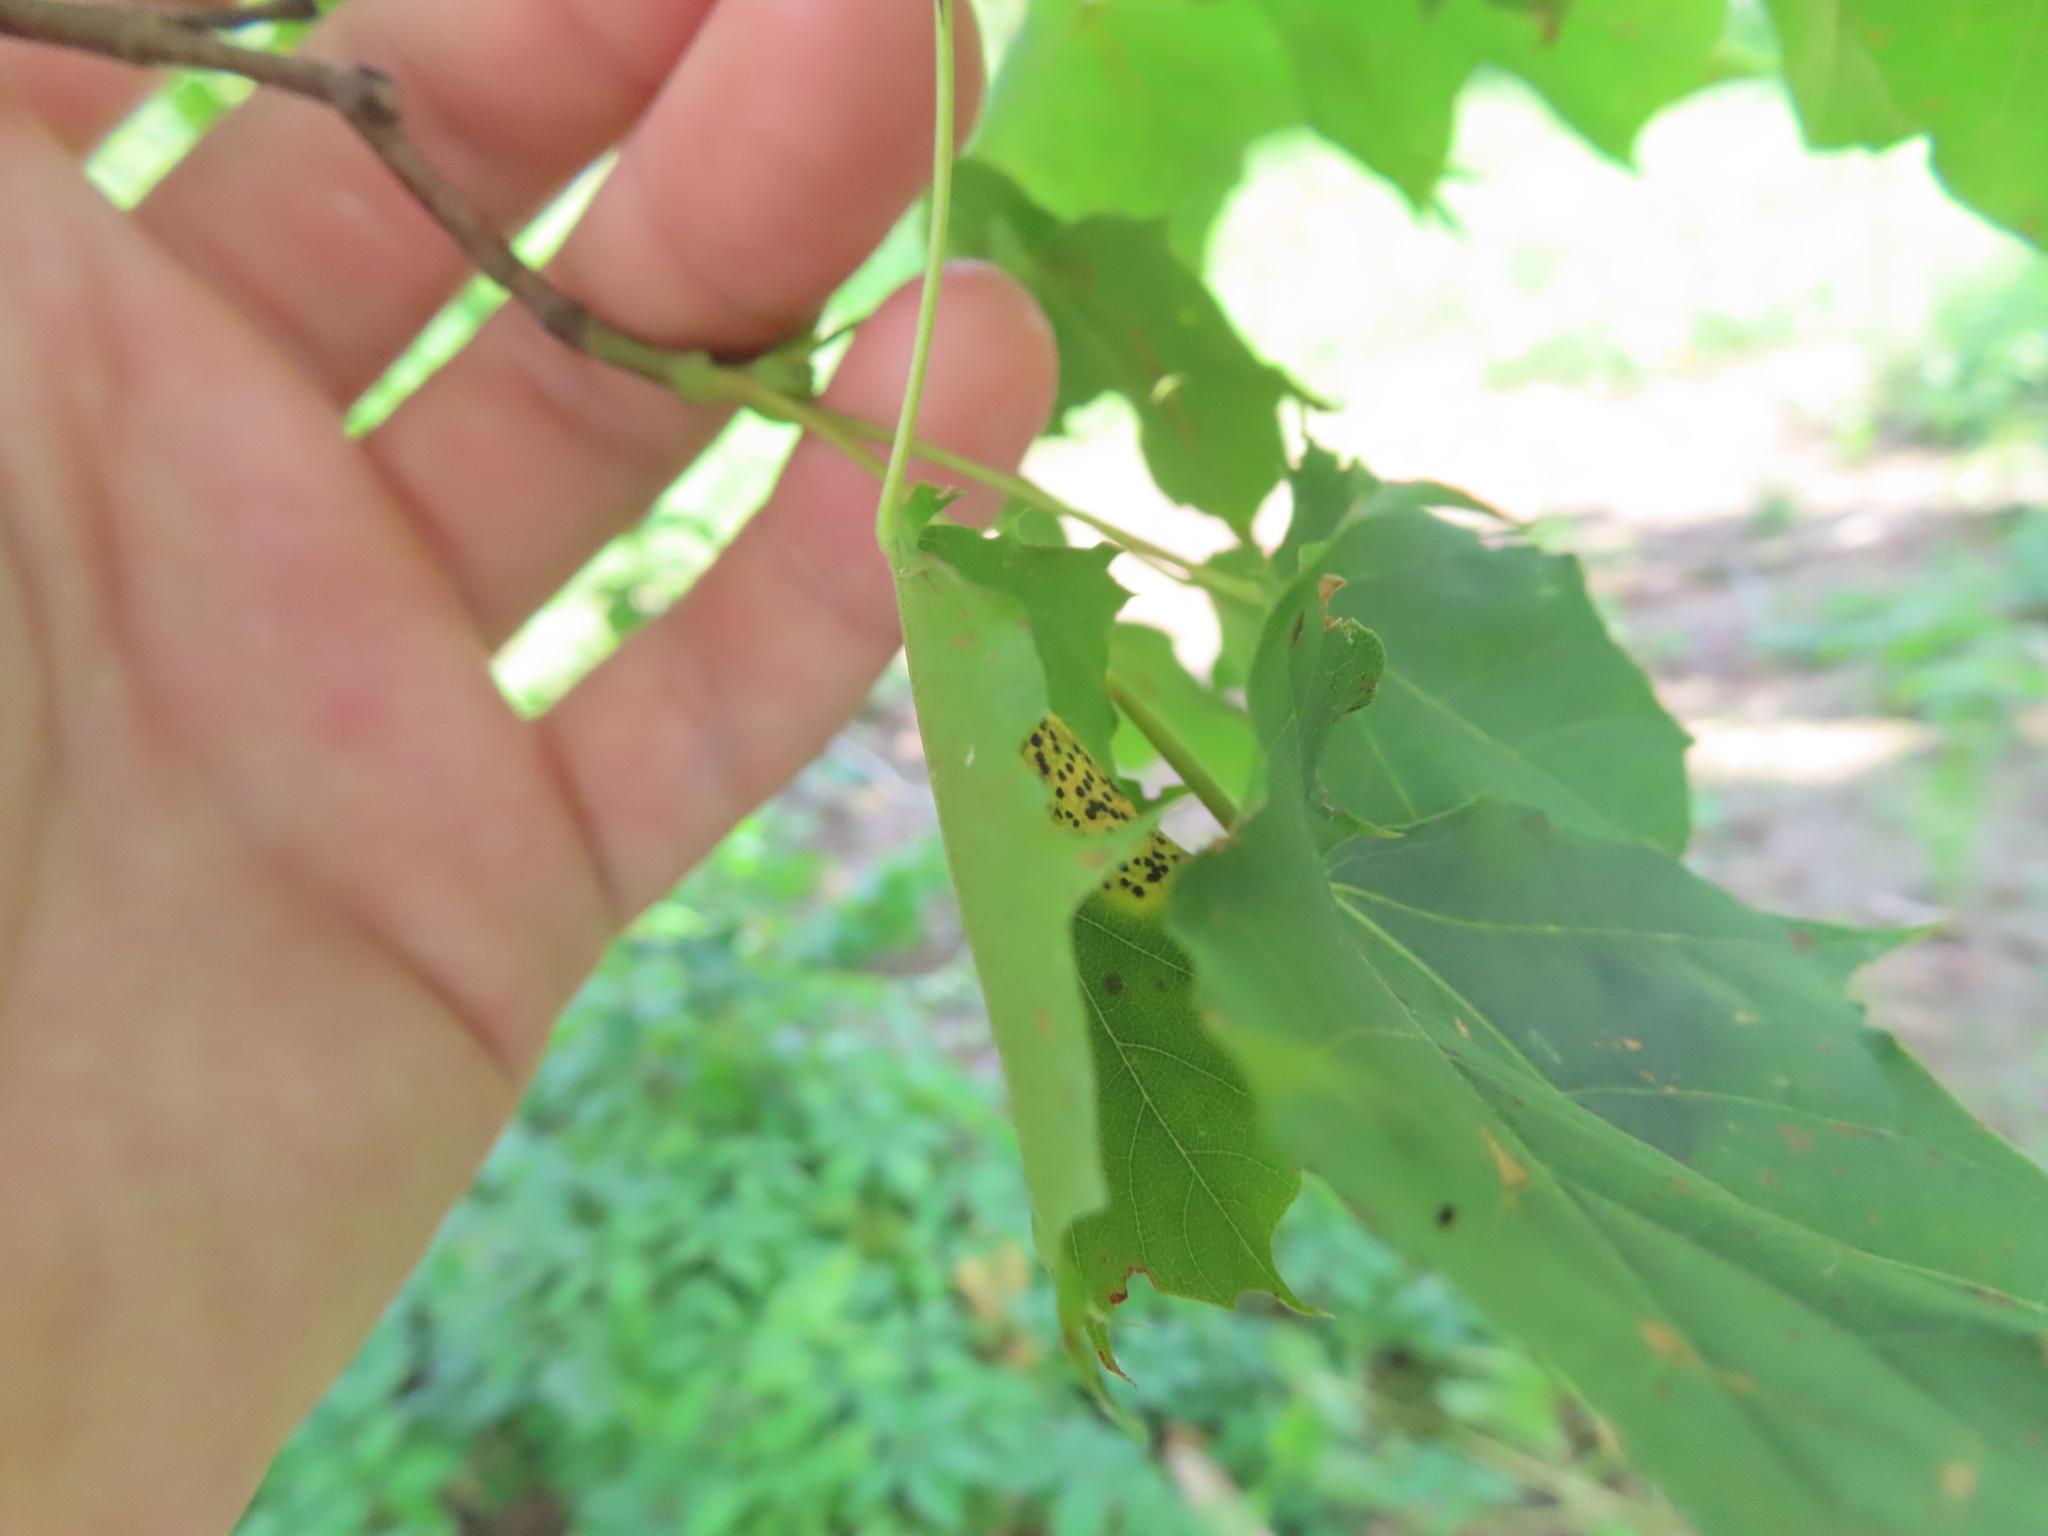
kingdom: Fungi
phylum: Ascomycota
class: Leotiomycetes
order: Rhytismatales
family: Rhytismataceae
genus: Rhytisma
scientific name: Rhytisma acerinum
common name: European tar spot
